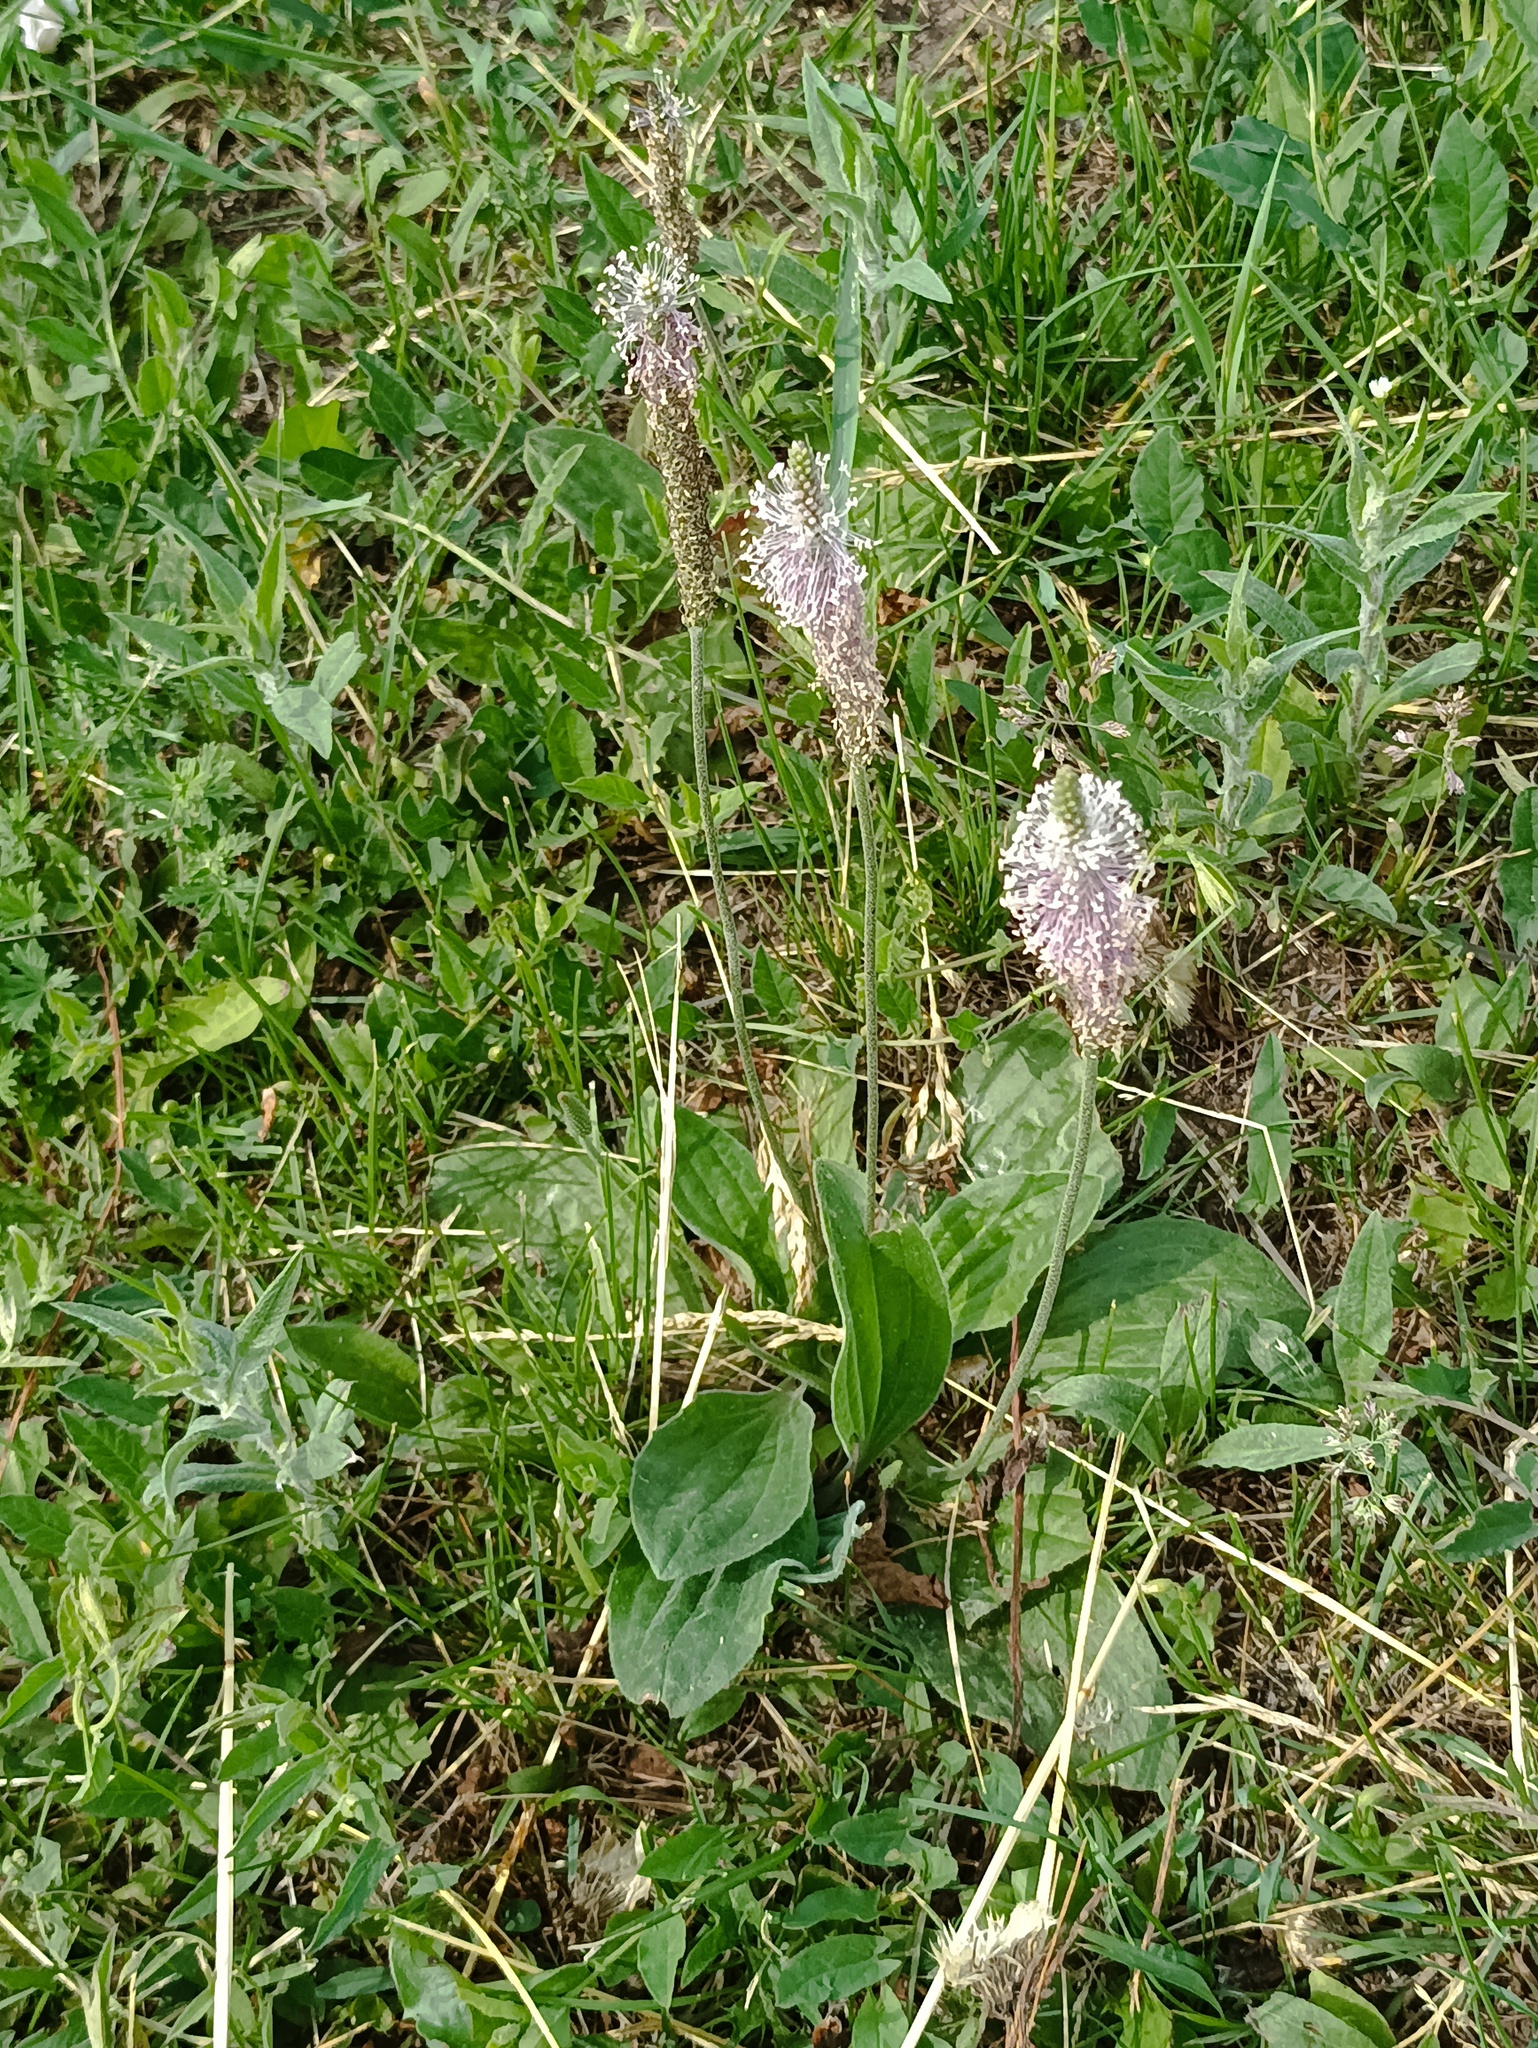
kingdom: Plantae
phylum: Tracheophyta
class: Magnoliopsida
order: Lamiales
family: Plantaginaceae
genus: Plantago
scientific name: Plantago media
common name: Hoary plantain
